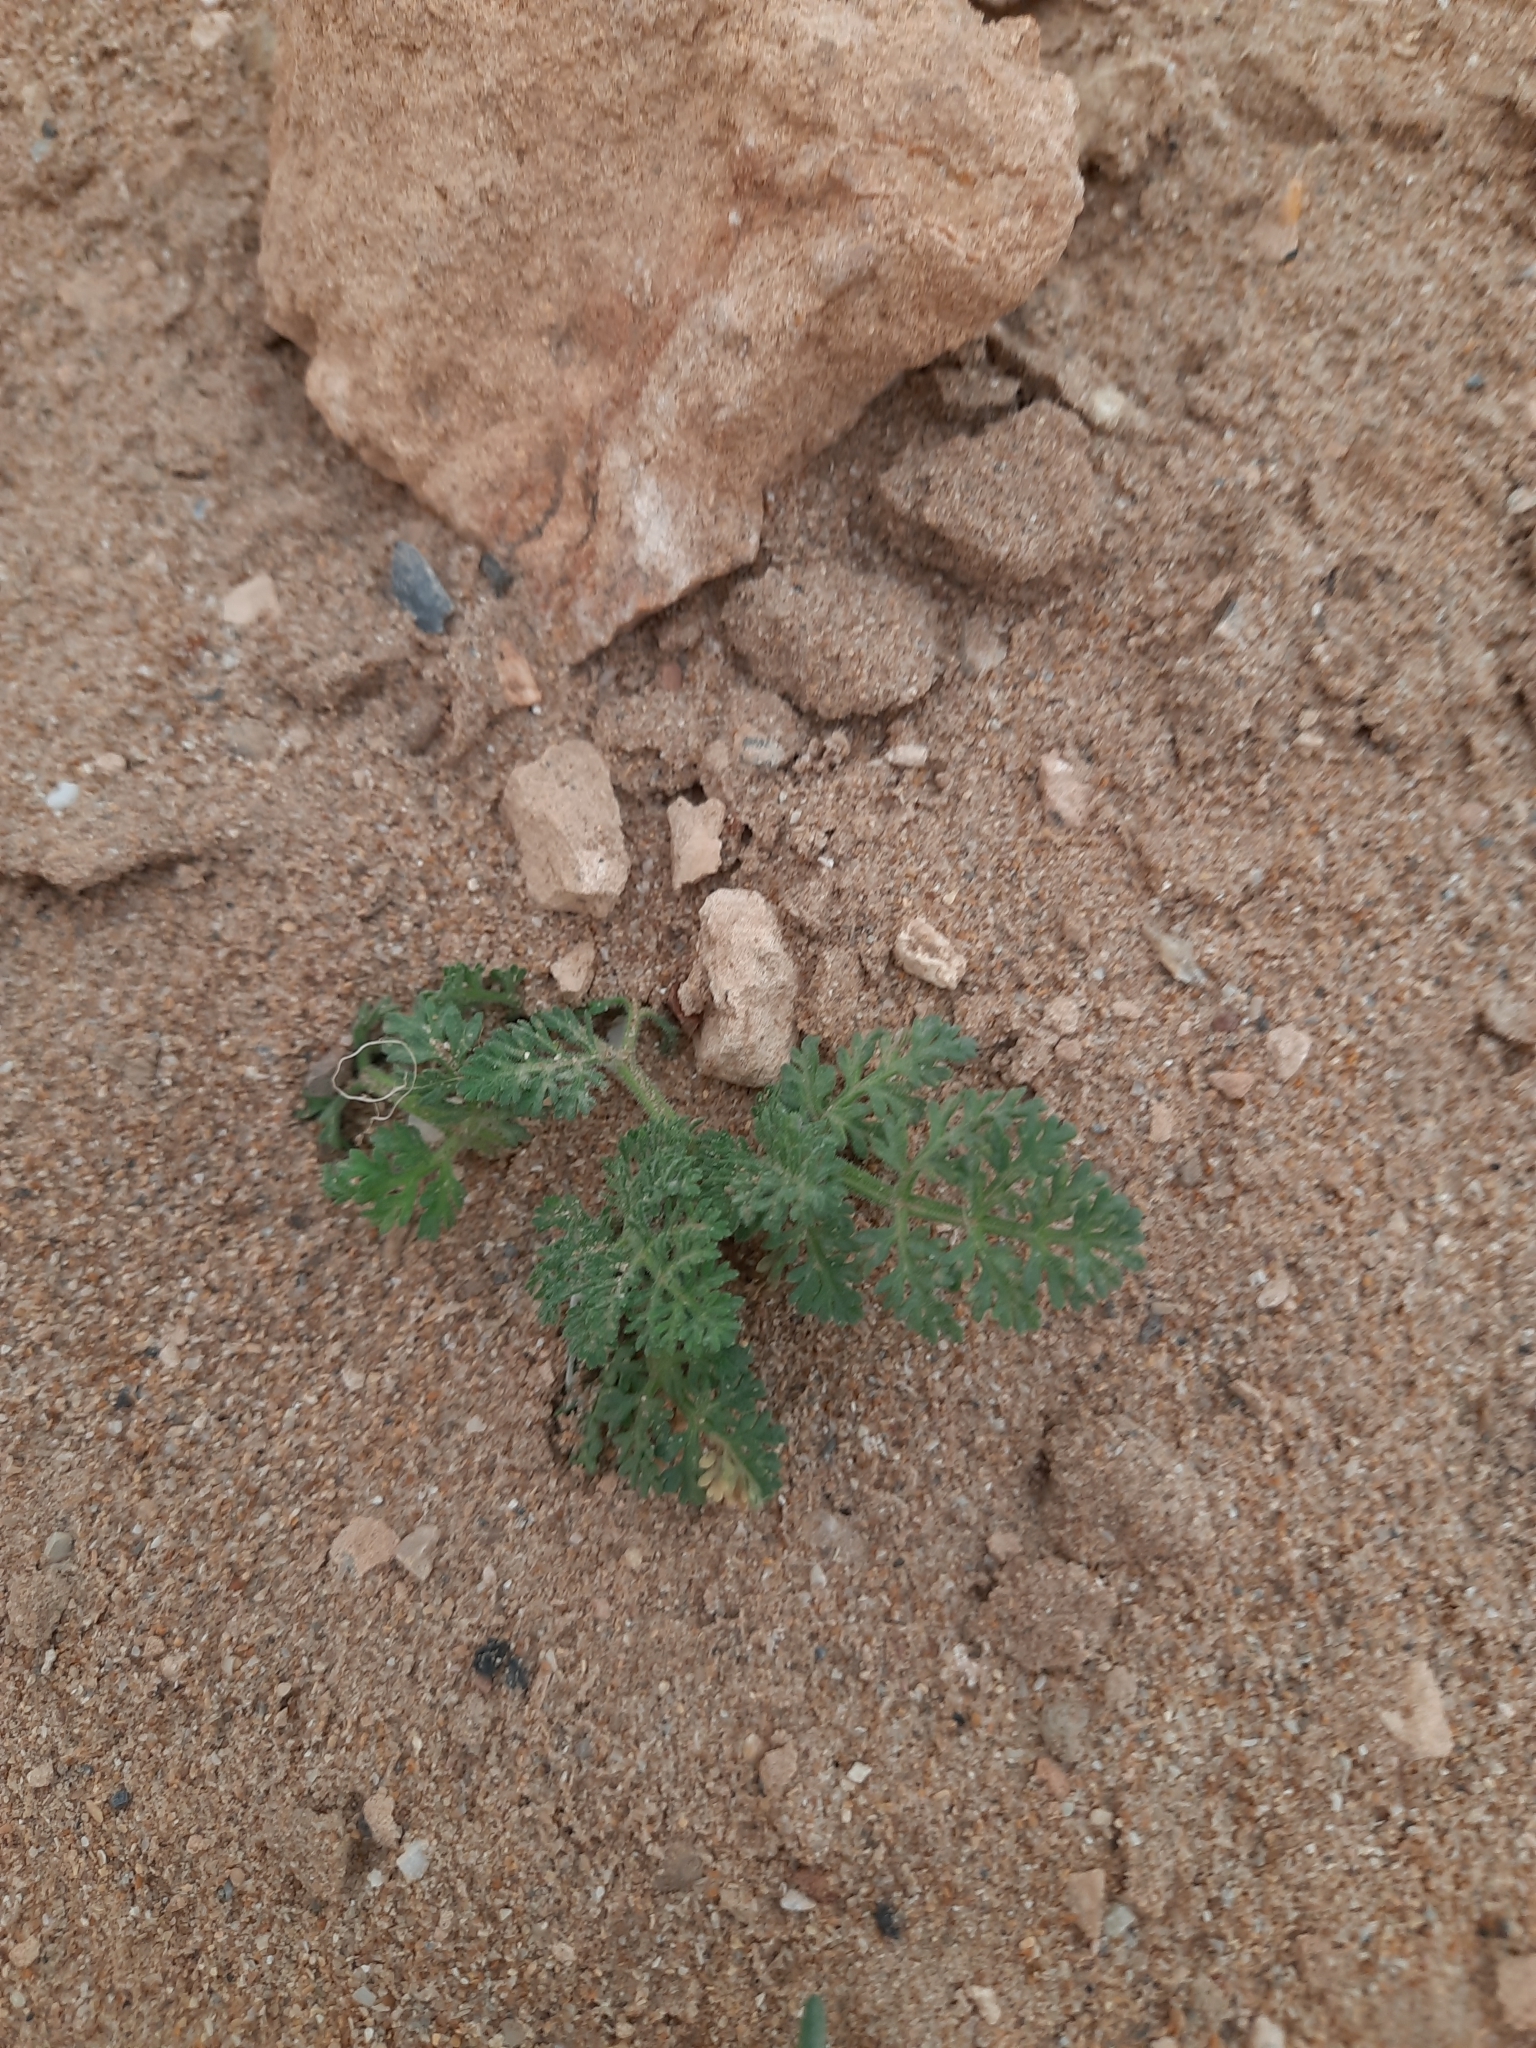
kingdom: Plantae
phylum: Tracheophyta
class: Magnoliopsida
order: Apiales
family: Apiaceae
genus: Daucus
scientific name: Daucus pumilus
